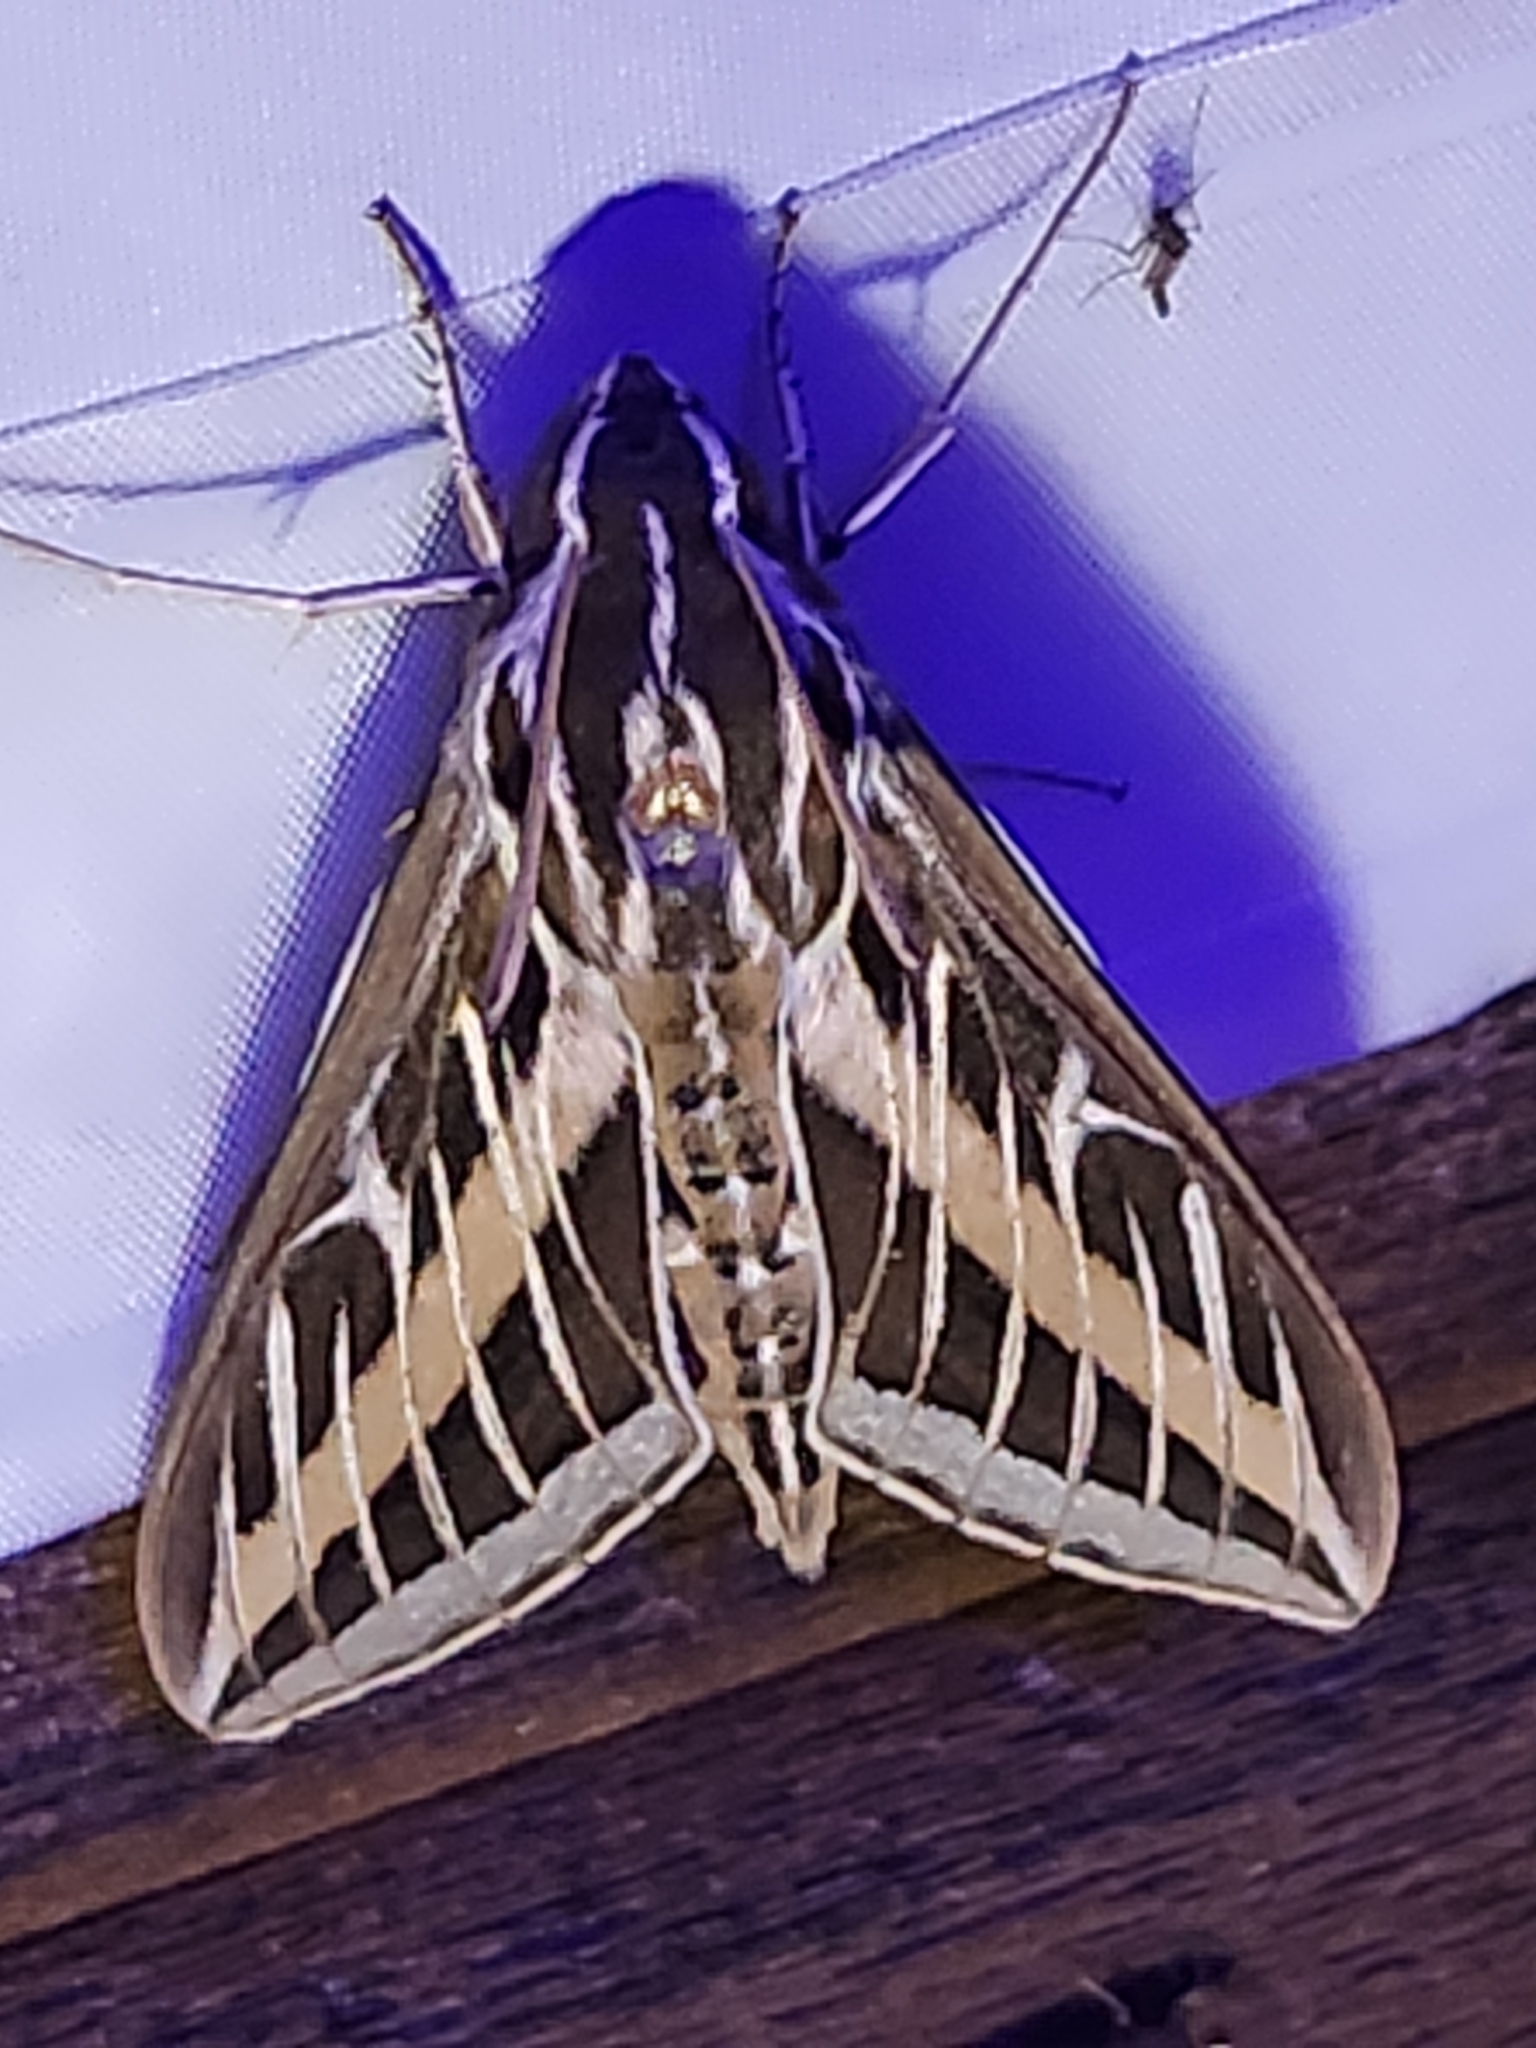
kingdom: Animalia
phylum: Arthropoda
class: Insecta
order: Lepidoptera
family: Sphingidae
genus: Hyles
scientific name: Hyles lineata
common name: White-lined sphinx
